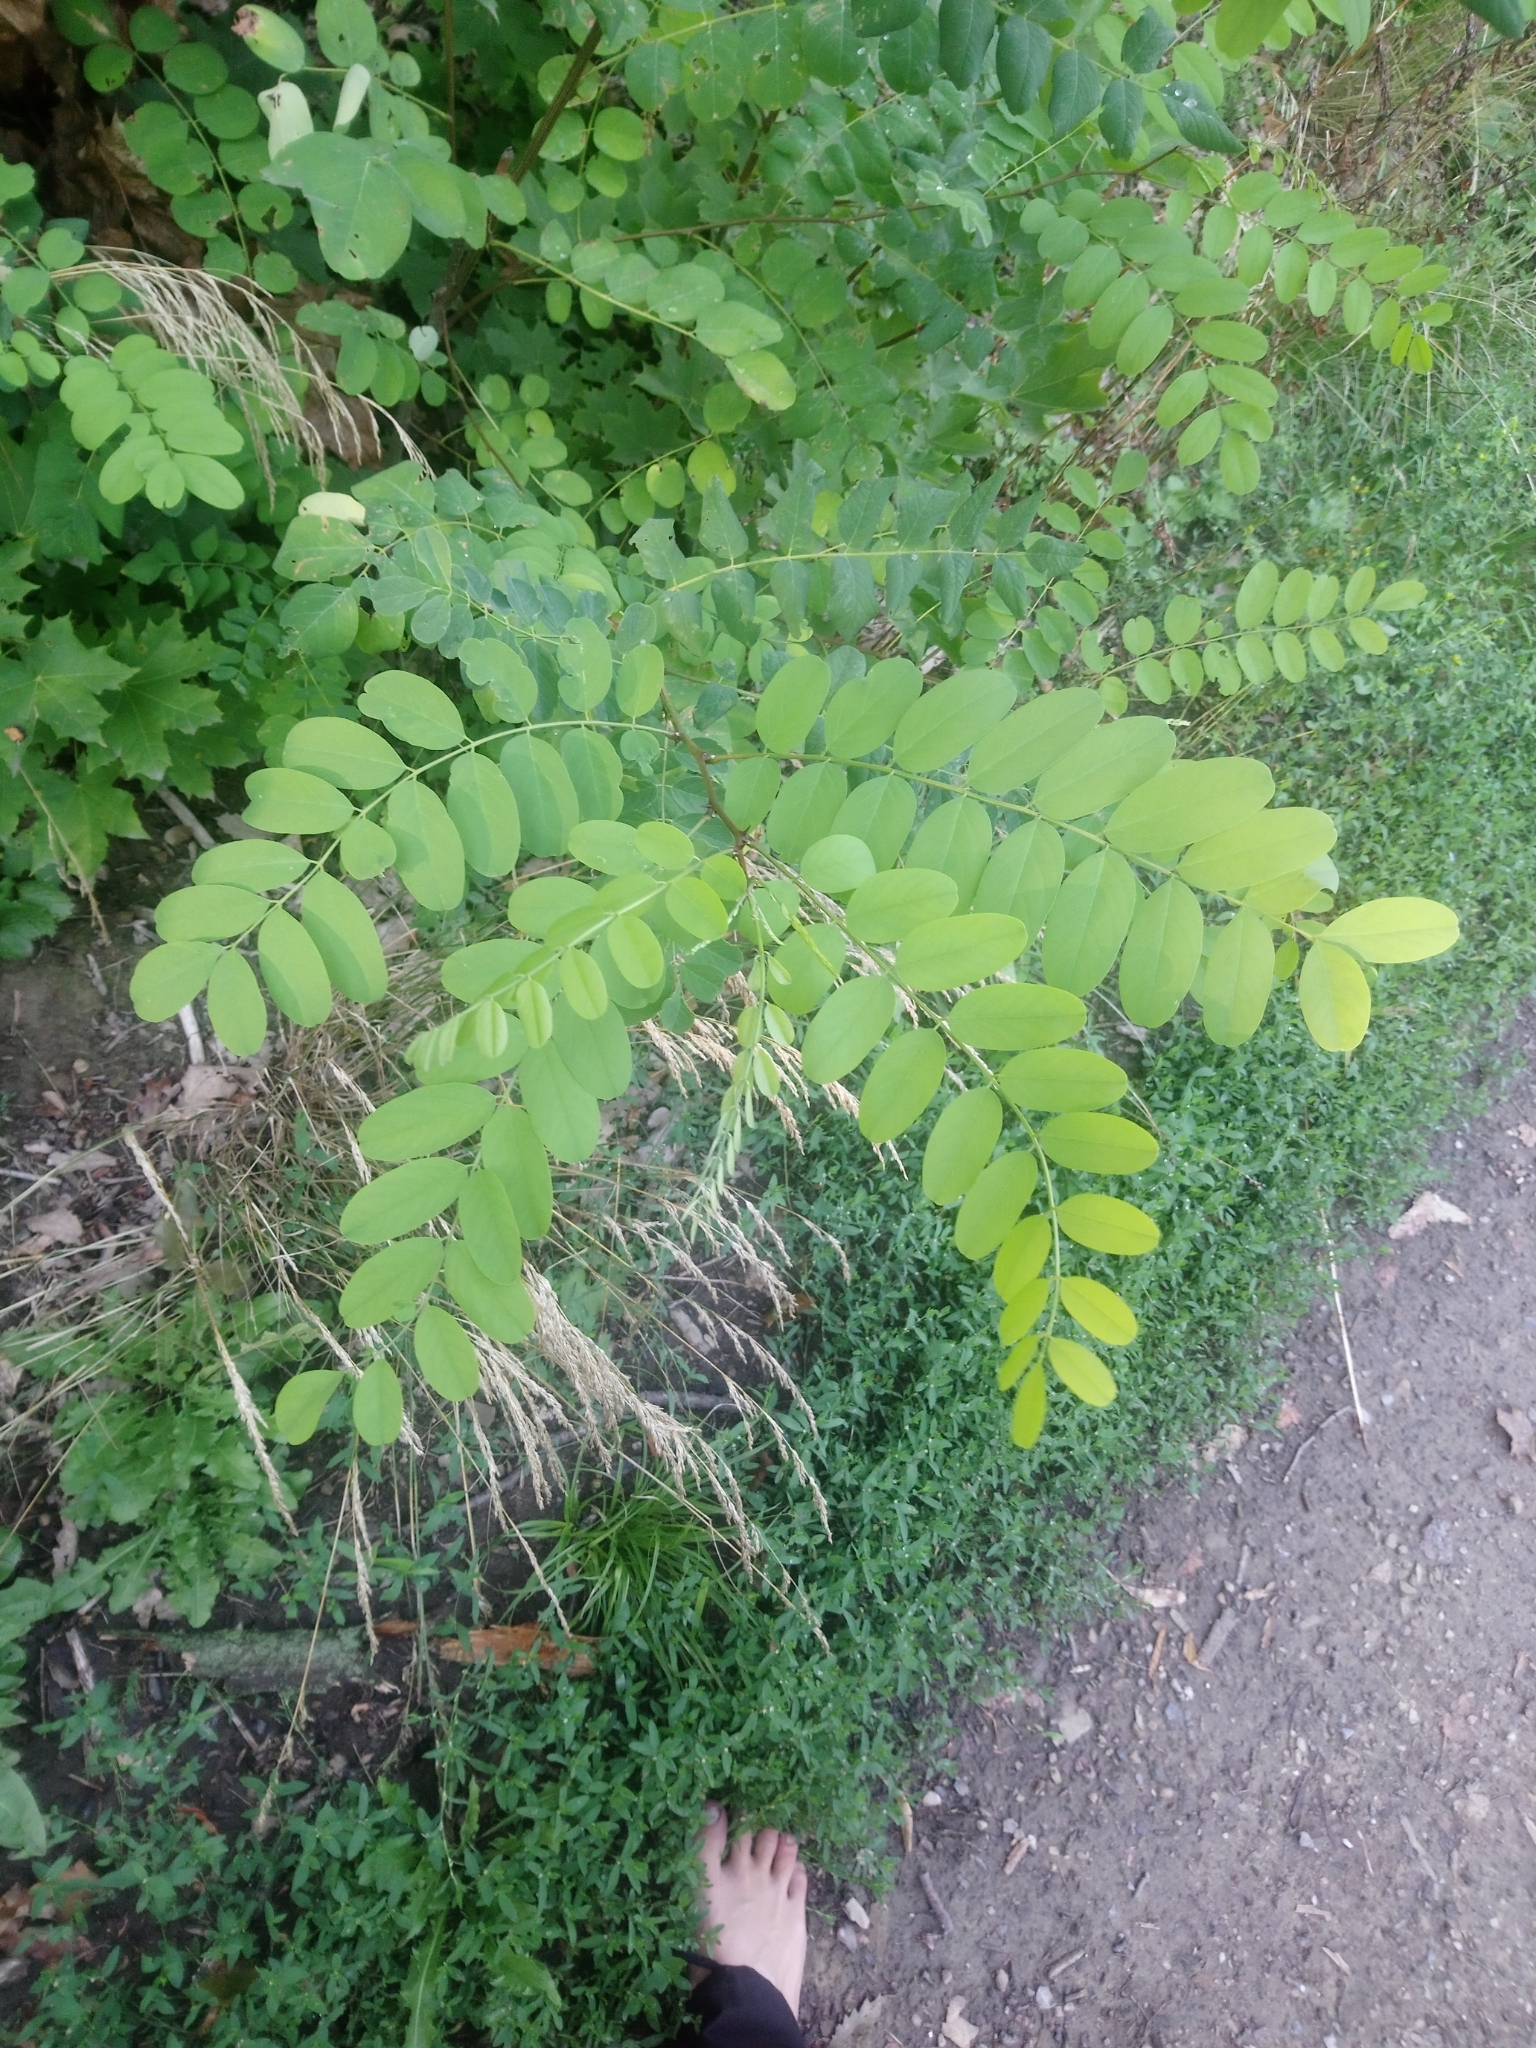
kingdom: Plantae
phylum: Tracheophyta
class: Magnoliopsida
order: Fabales
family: Fabaceae
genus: Robinia
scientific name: Robinia pseudoacacia
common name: Black locust
